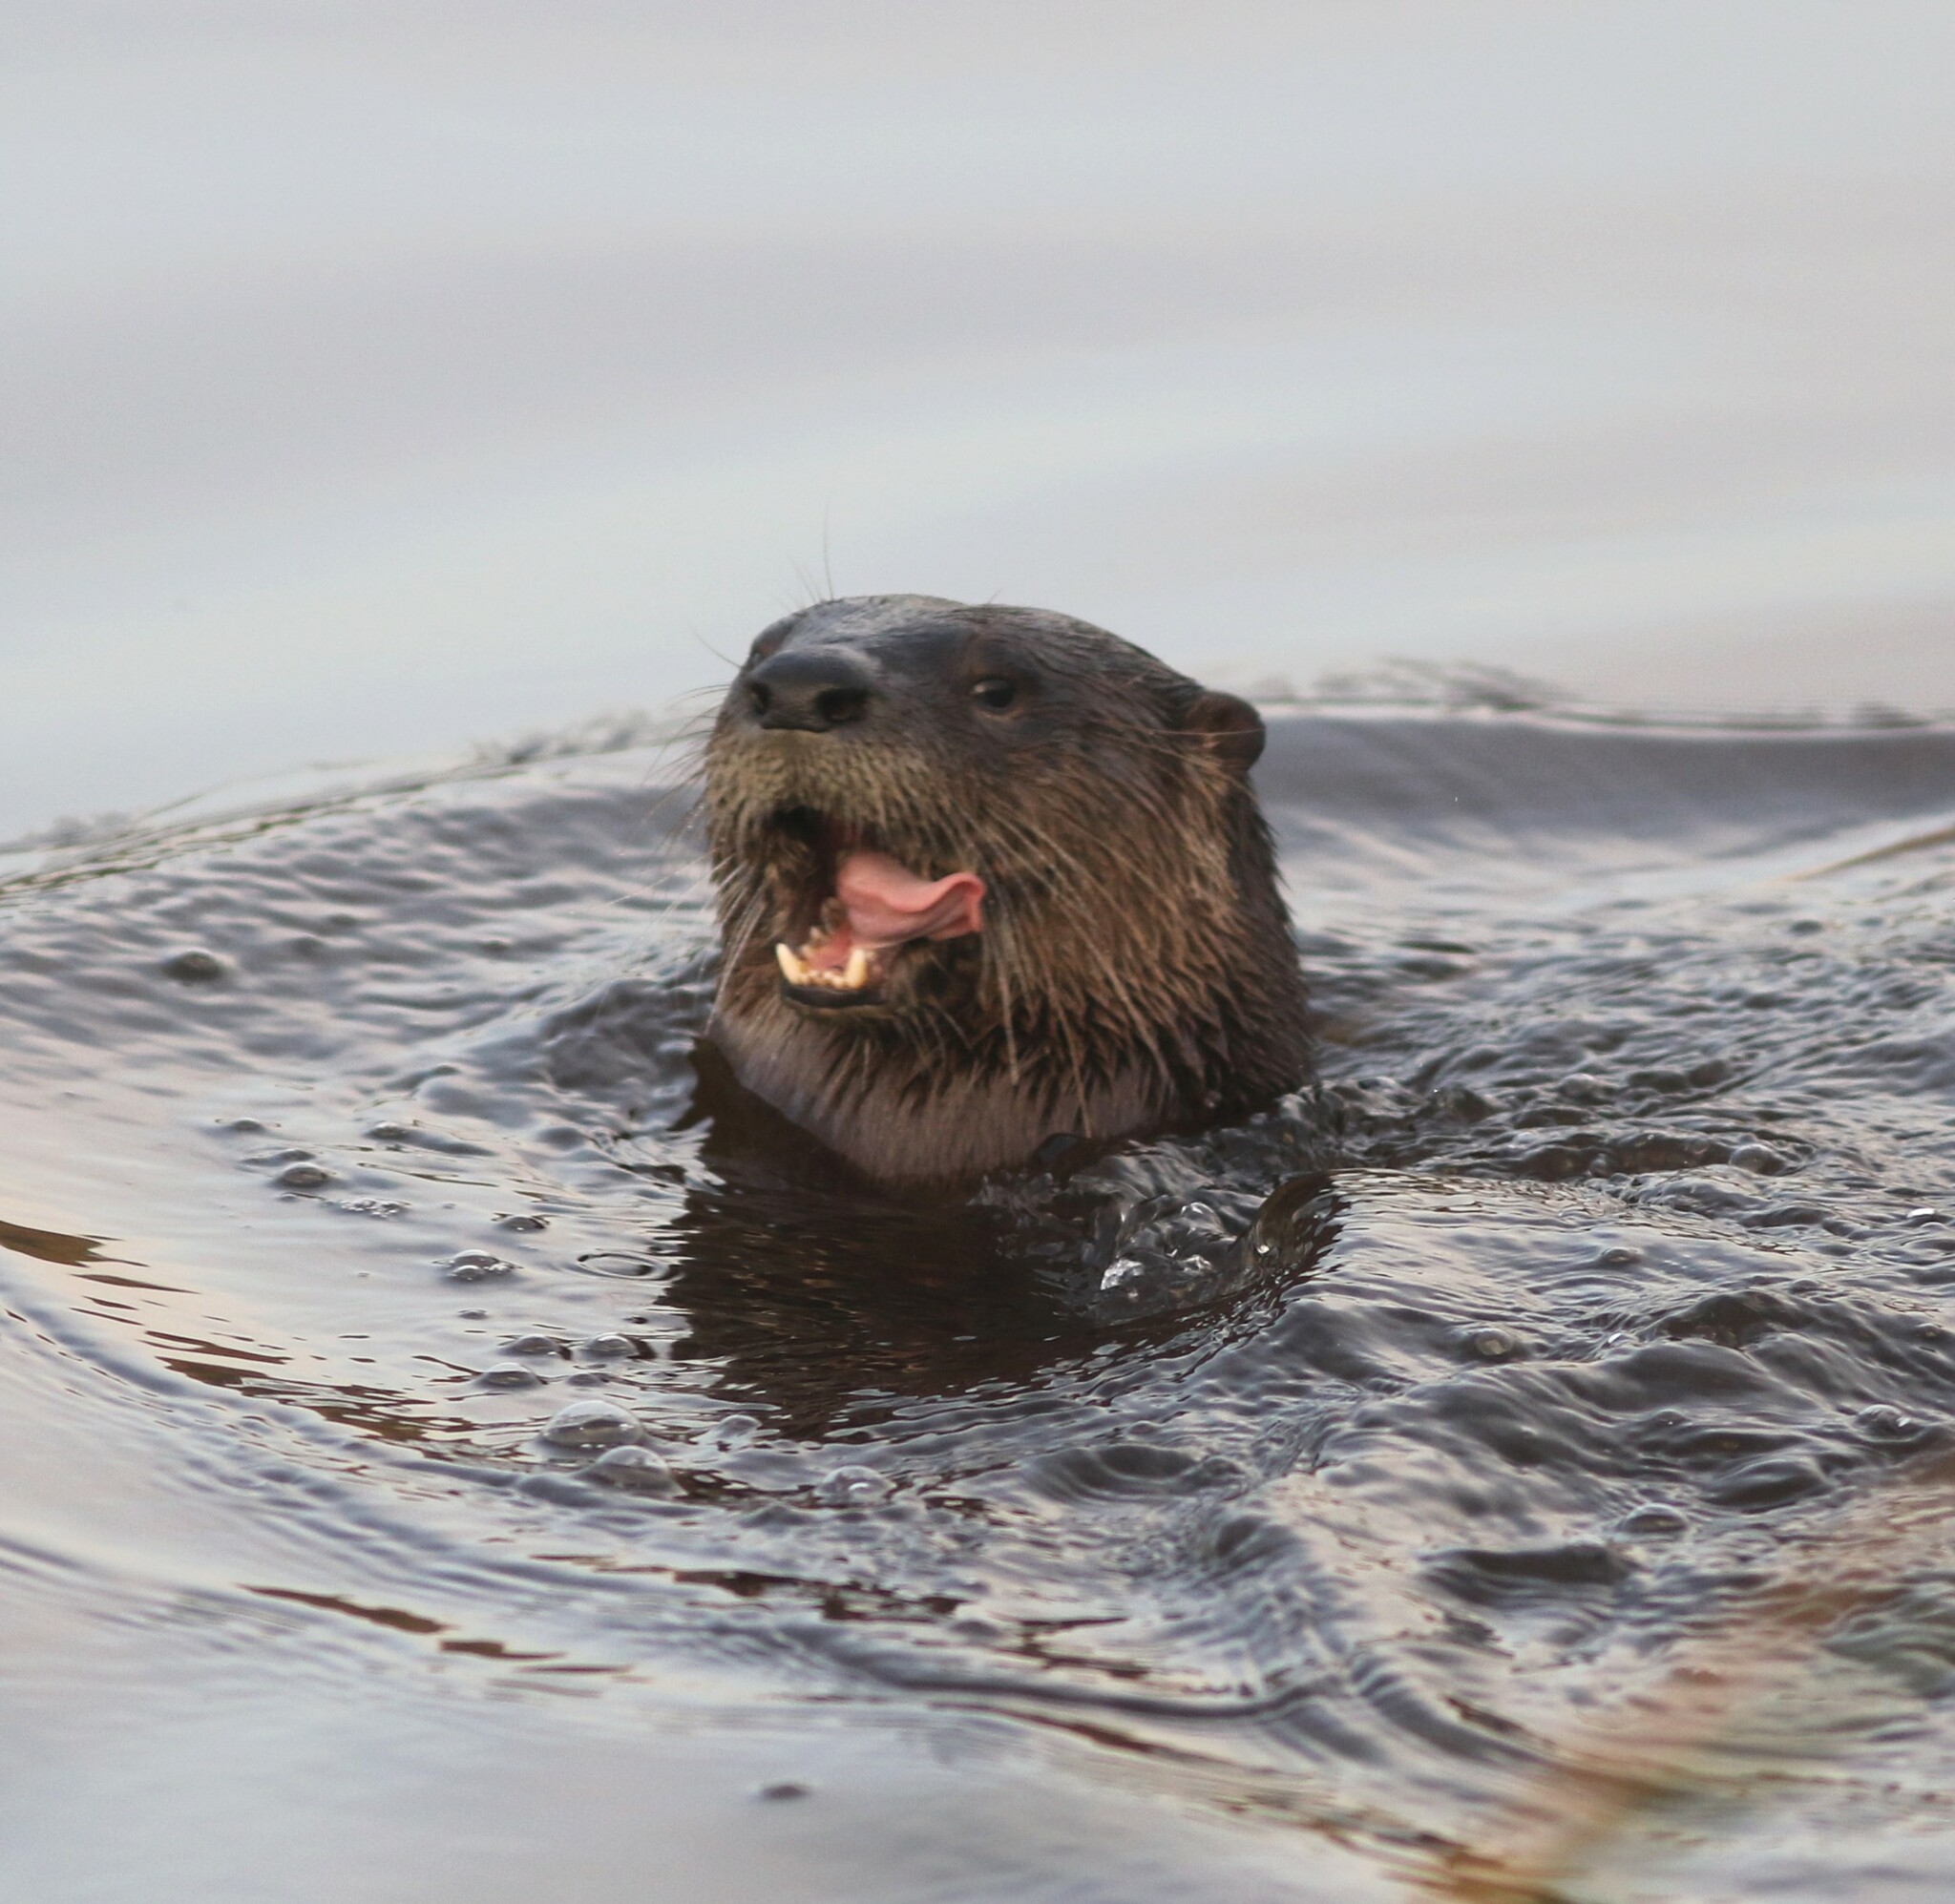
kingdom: Animalia
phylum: Chordata
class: Mammalia
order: Carnivora
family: Mustelidae
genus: Lontra
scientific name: Lontra canadensis
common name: North american river otter
